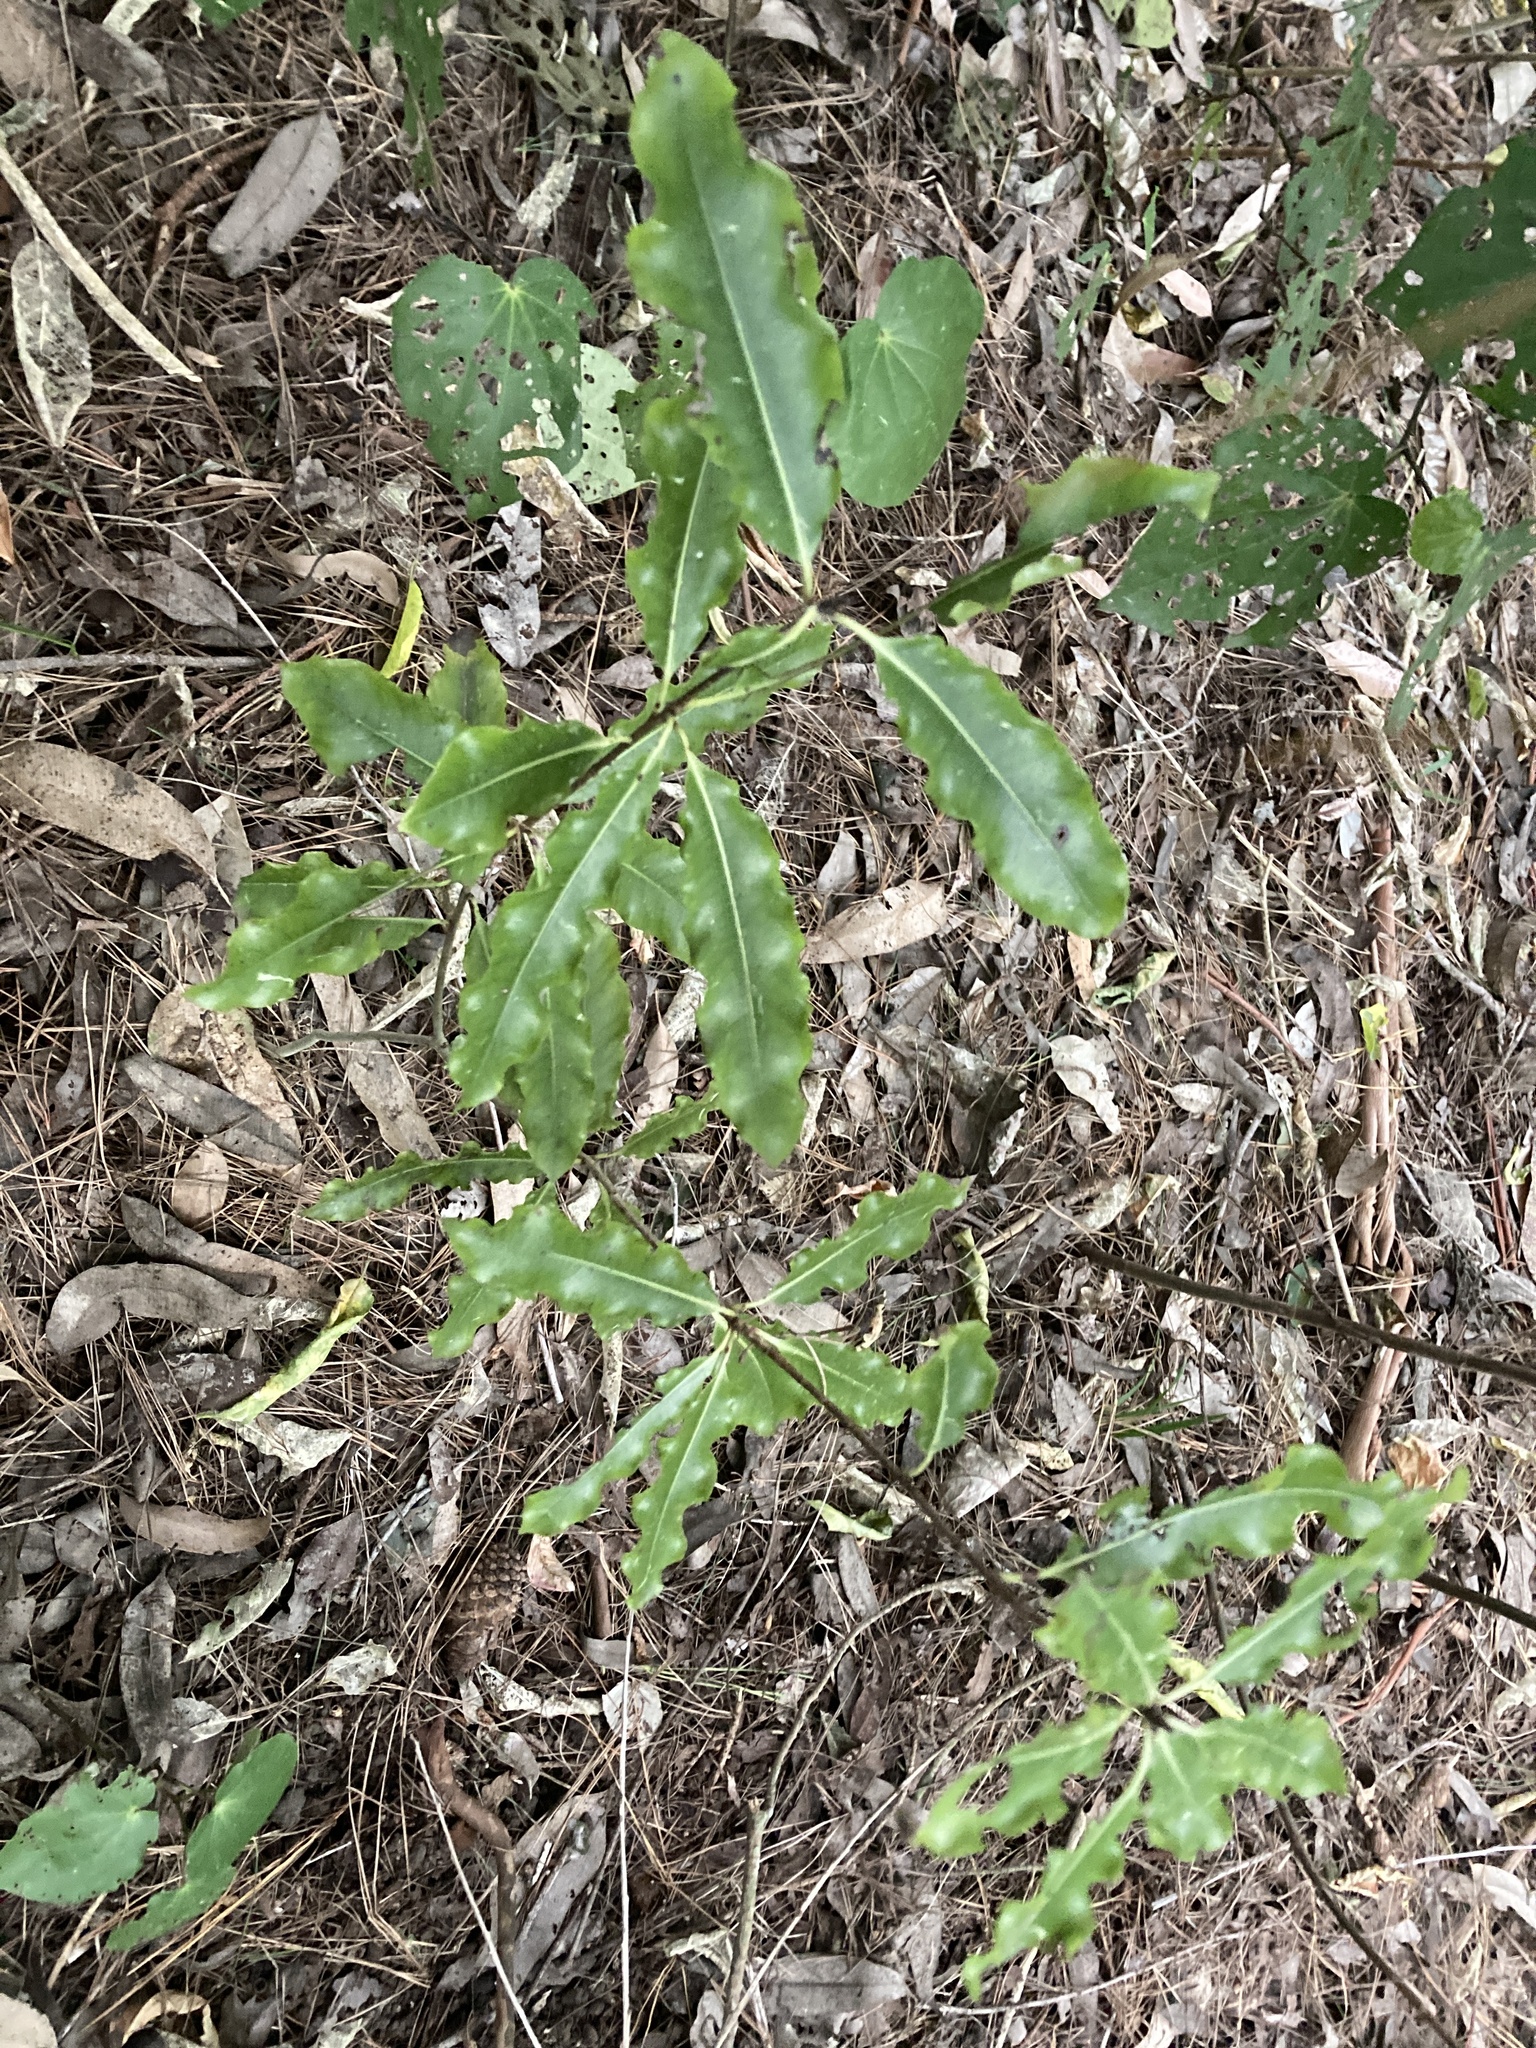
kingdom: Plantae
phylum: Tracheophyta
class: Magnoliopsida
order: Apiales
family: Pittosporaceae
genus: Pittosporum
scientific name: Pittosporum eugenioides
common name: Lemonwood
